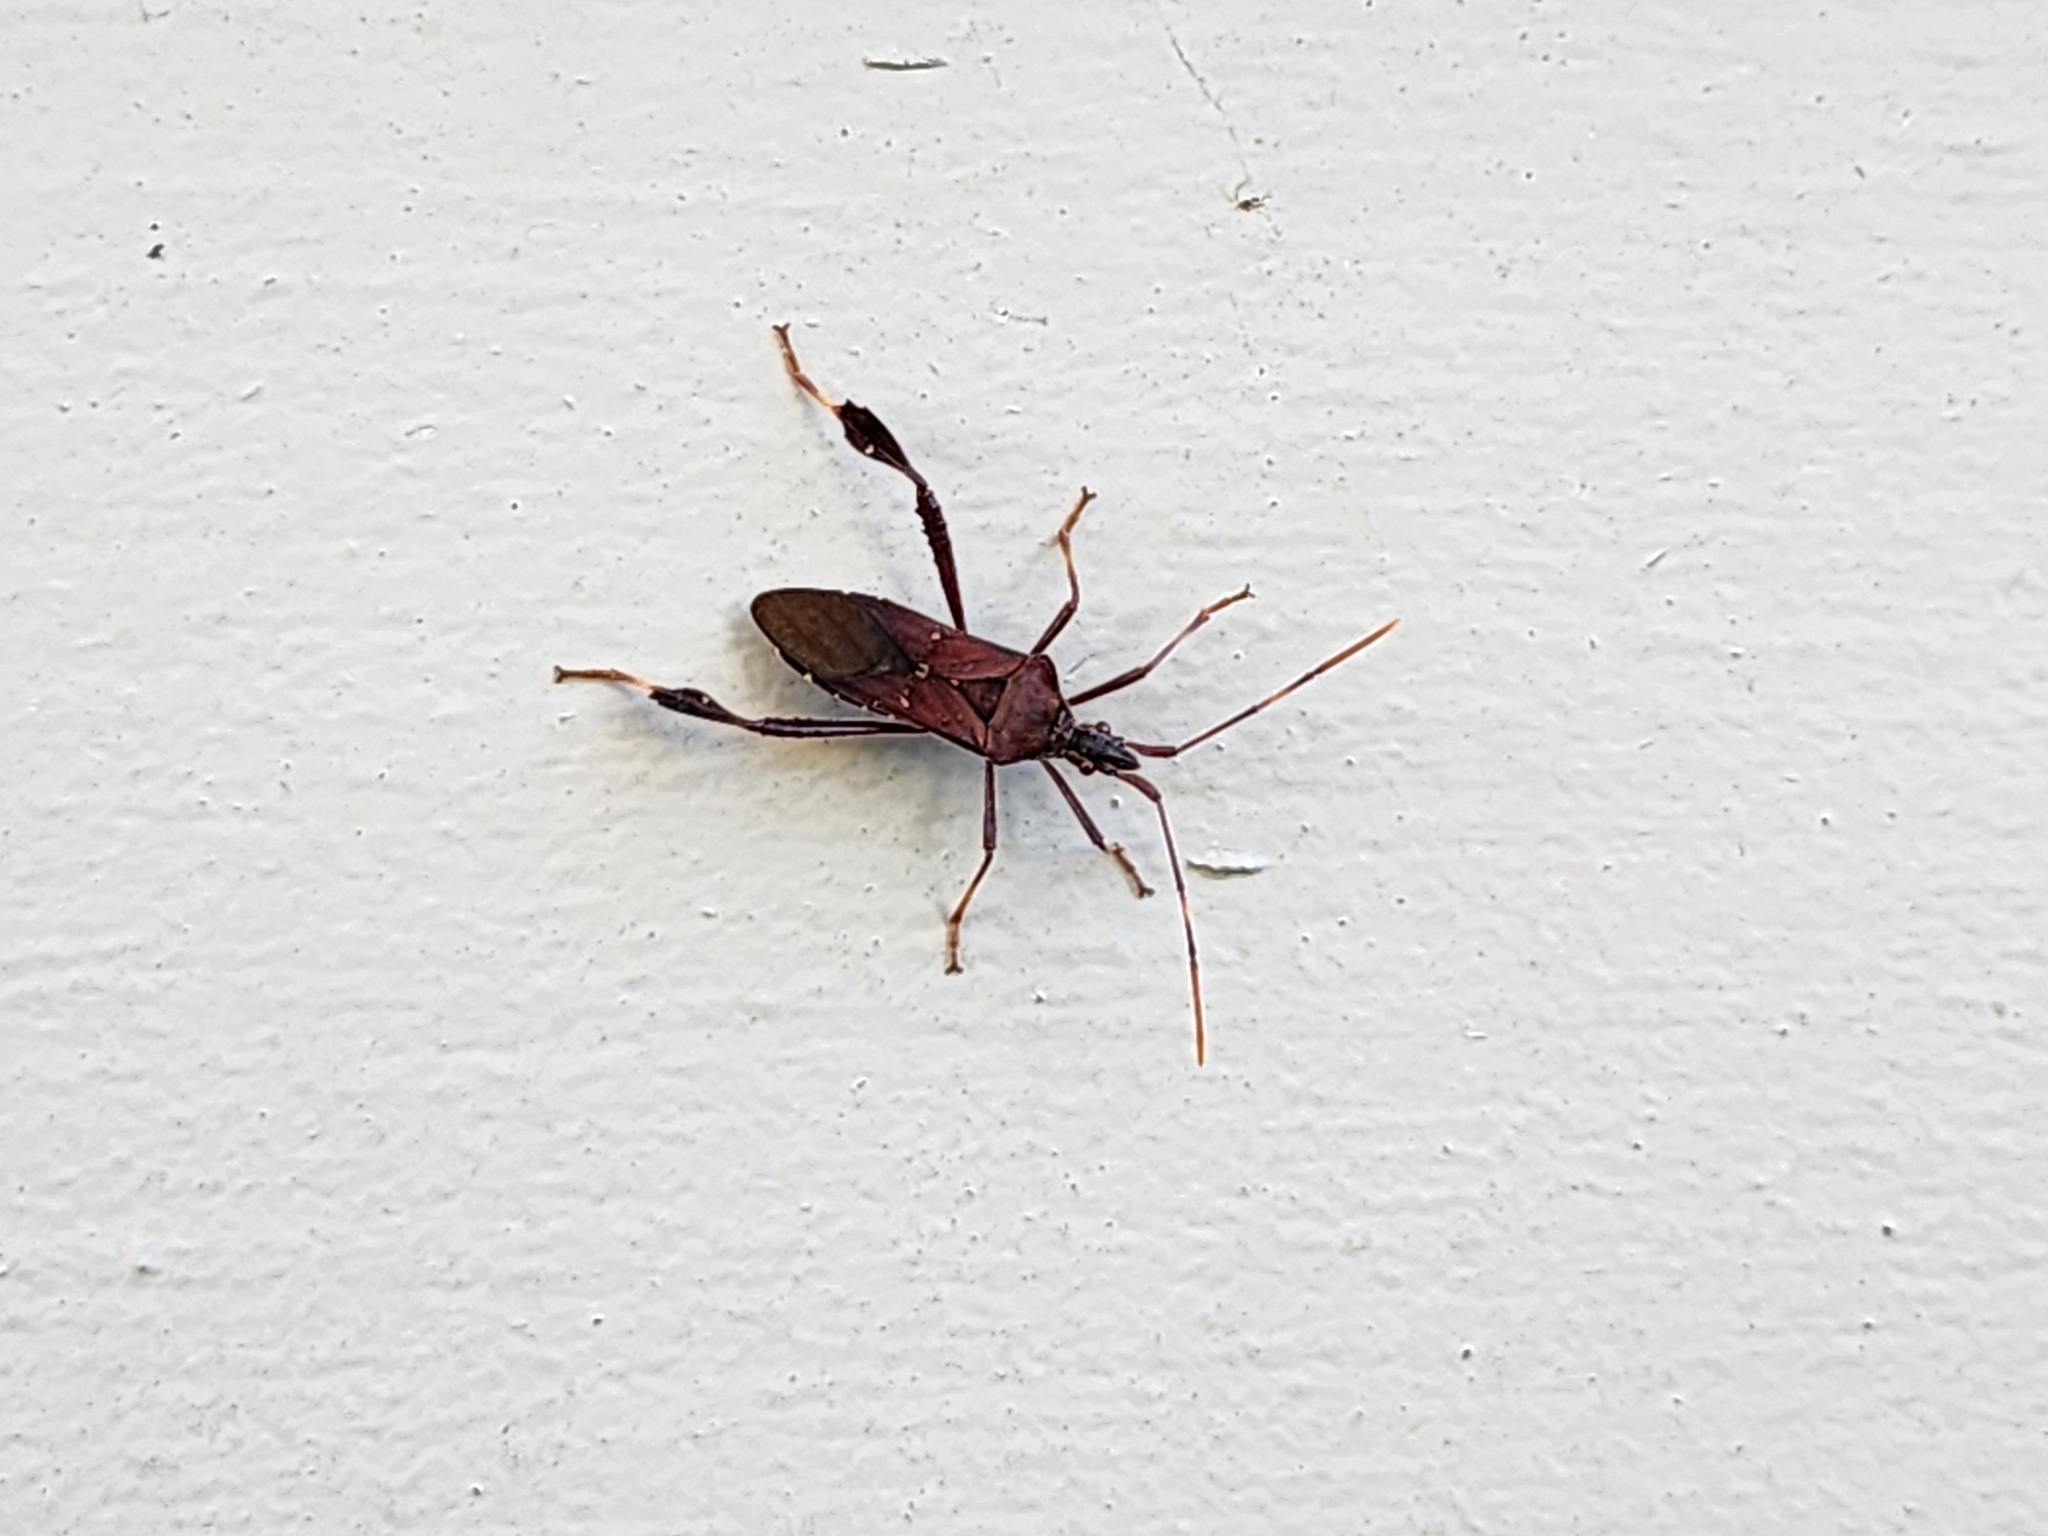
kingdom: Animalia
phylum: Arthropoda
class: Insecta
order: Hemiptera
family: Coreidae
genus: Leptoglossus
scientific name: Leptoglossus oppositus
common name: Northern leaf-footed bug
